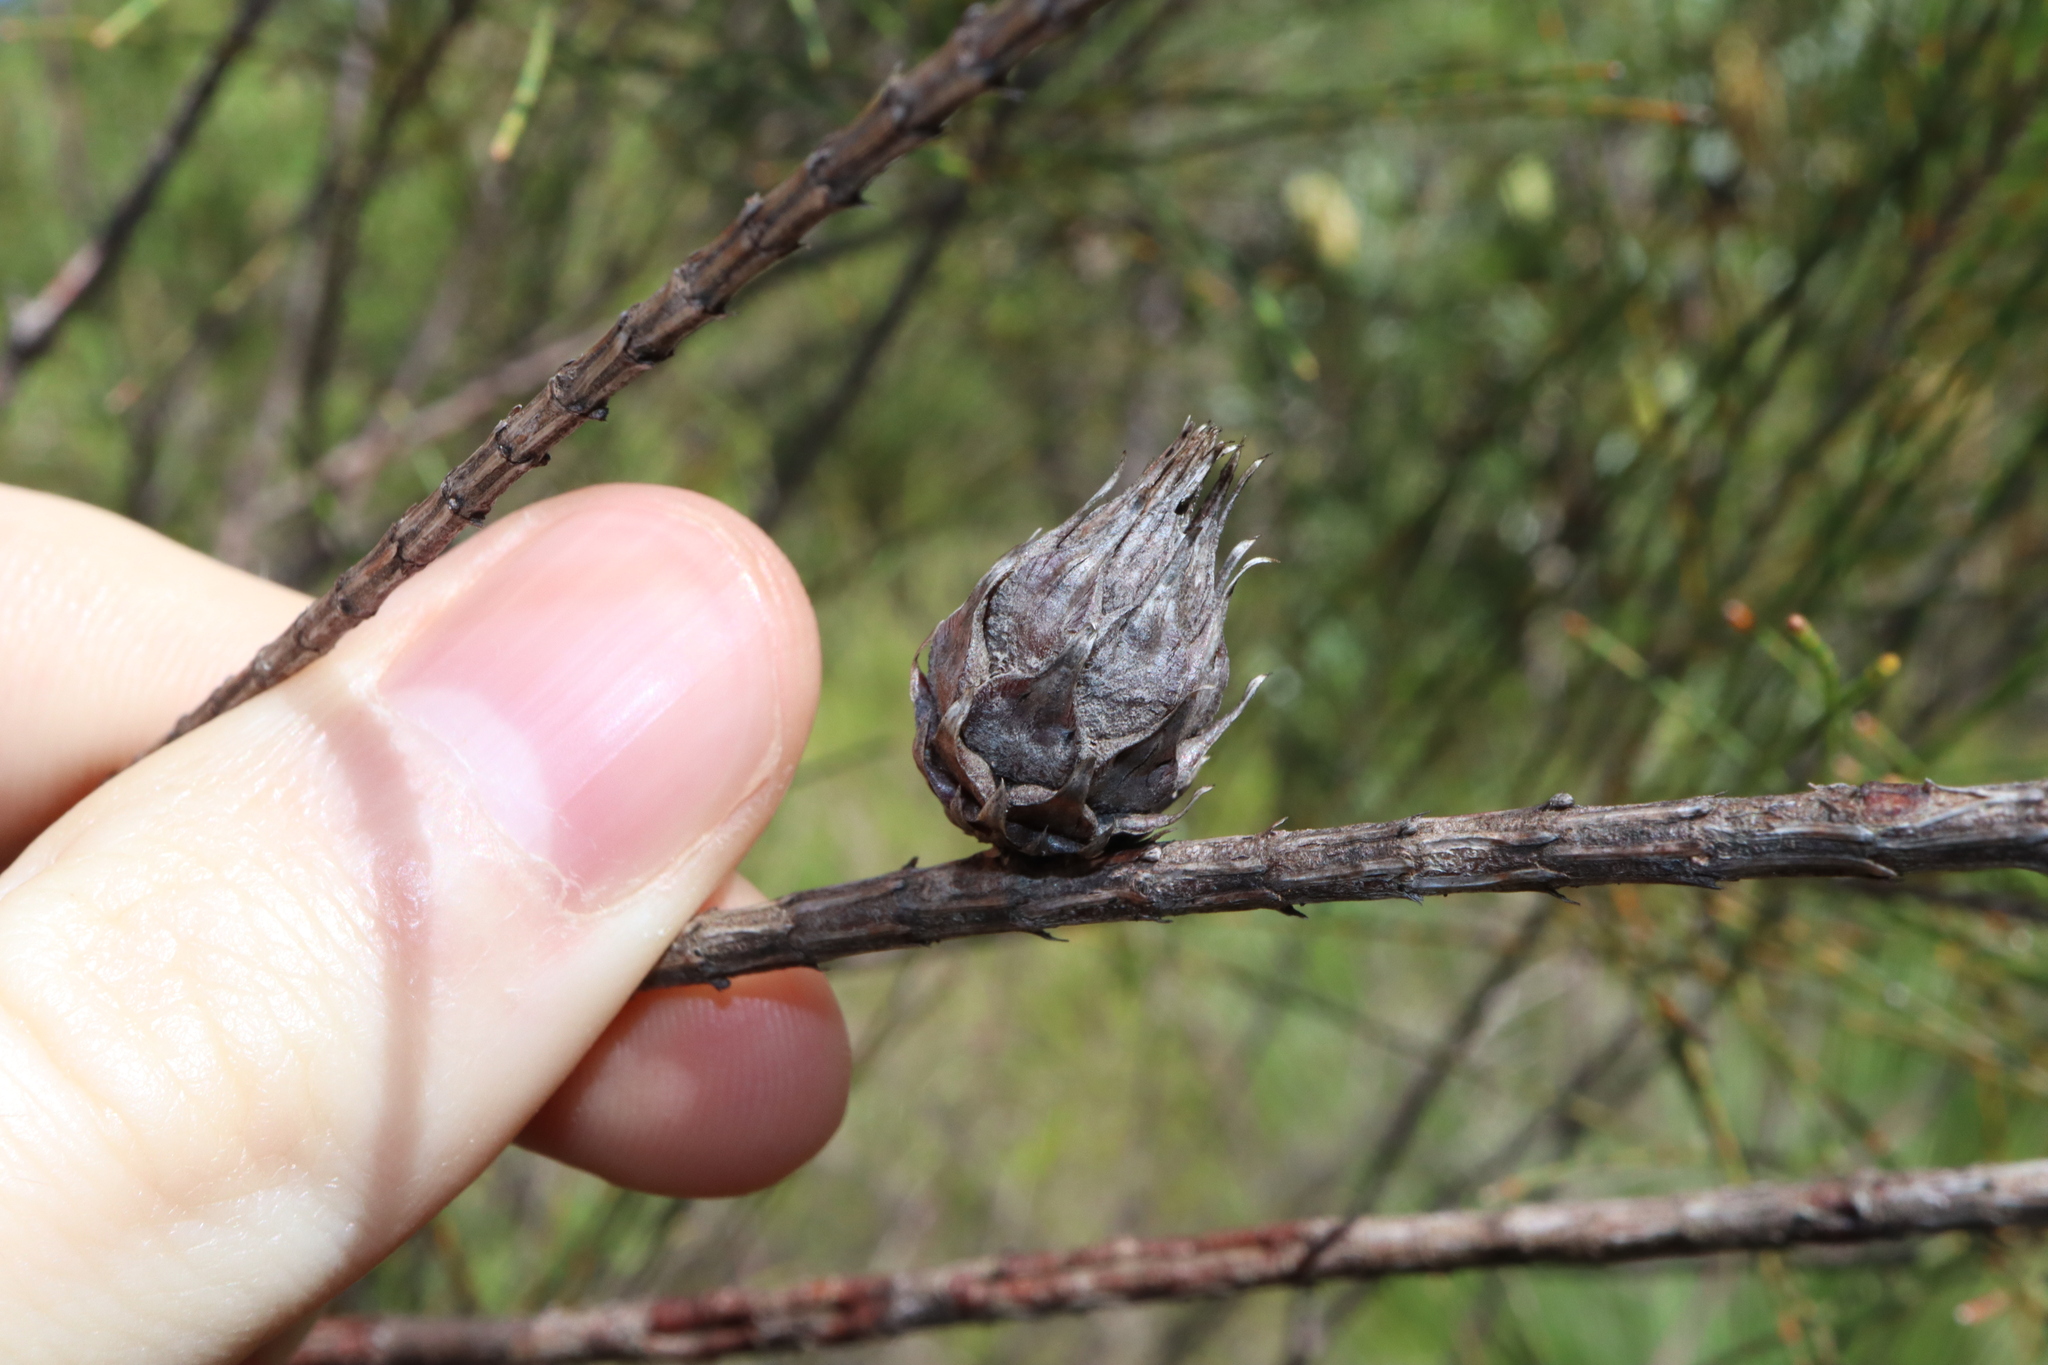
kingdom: Animalia
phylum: Arthropoda
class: Insecta
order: Hemiptera
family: Eriococcidae
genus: Cylindrococcus
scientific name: Cylindrococcus spiniferus
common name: Casuarina gall
